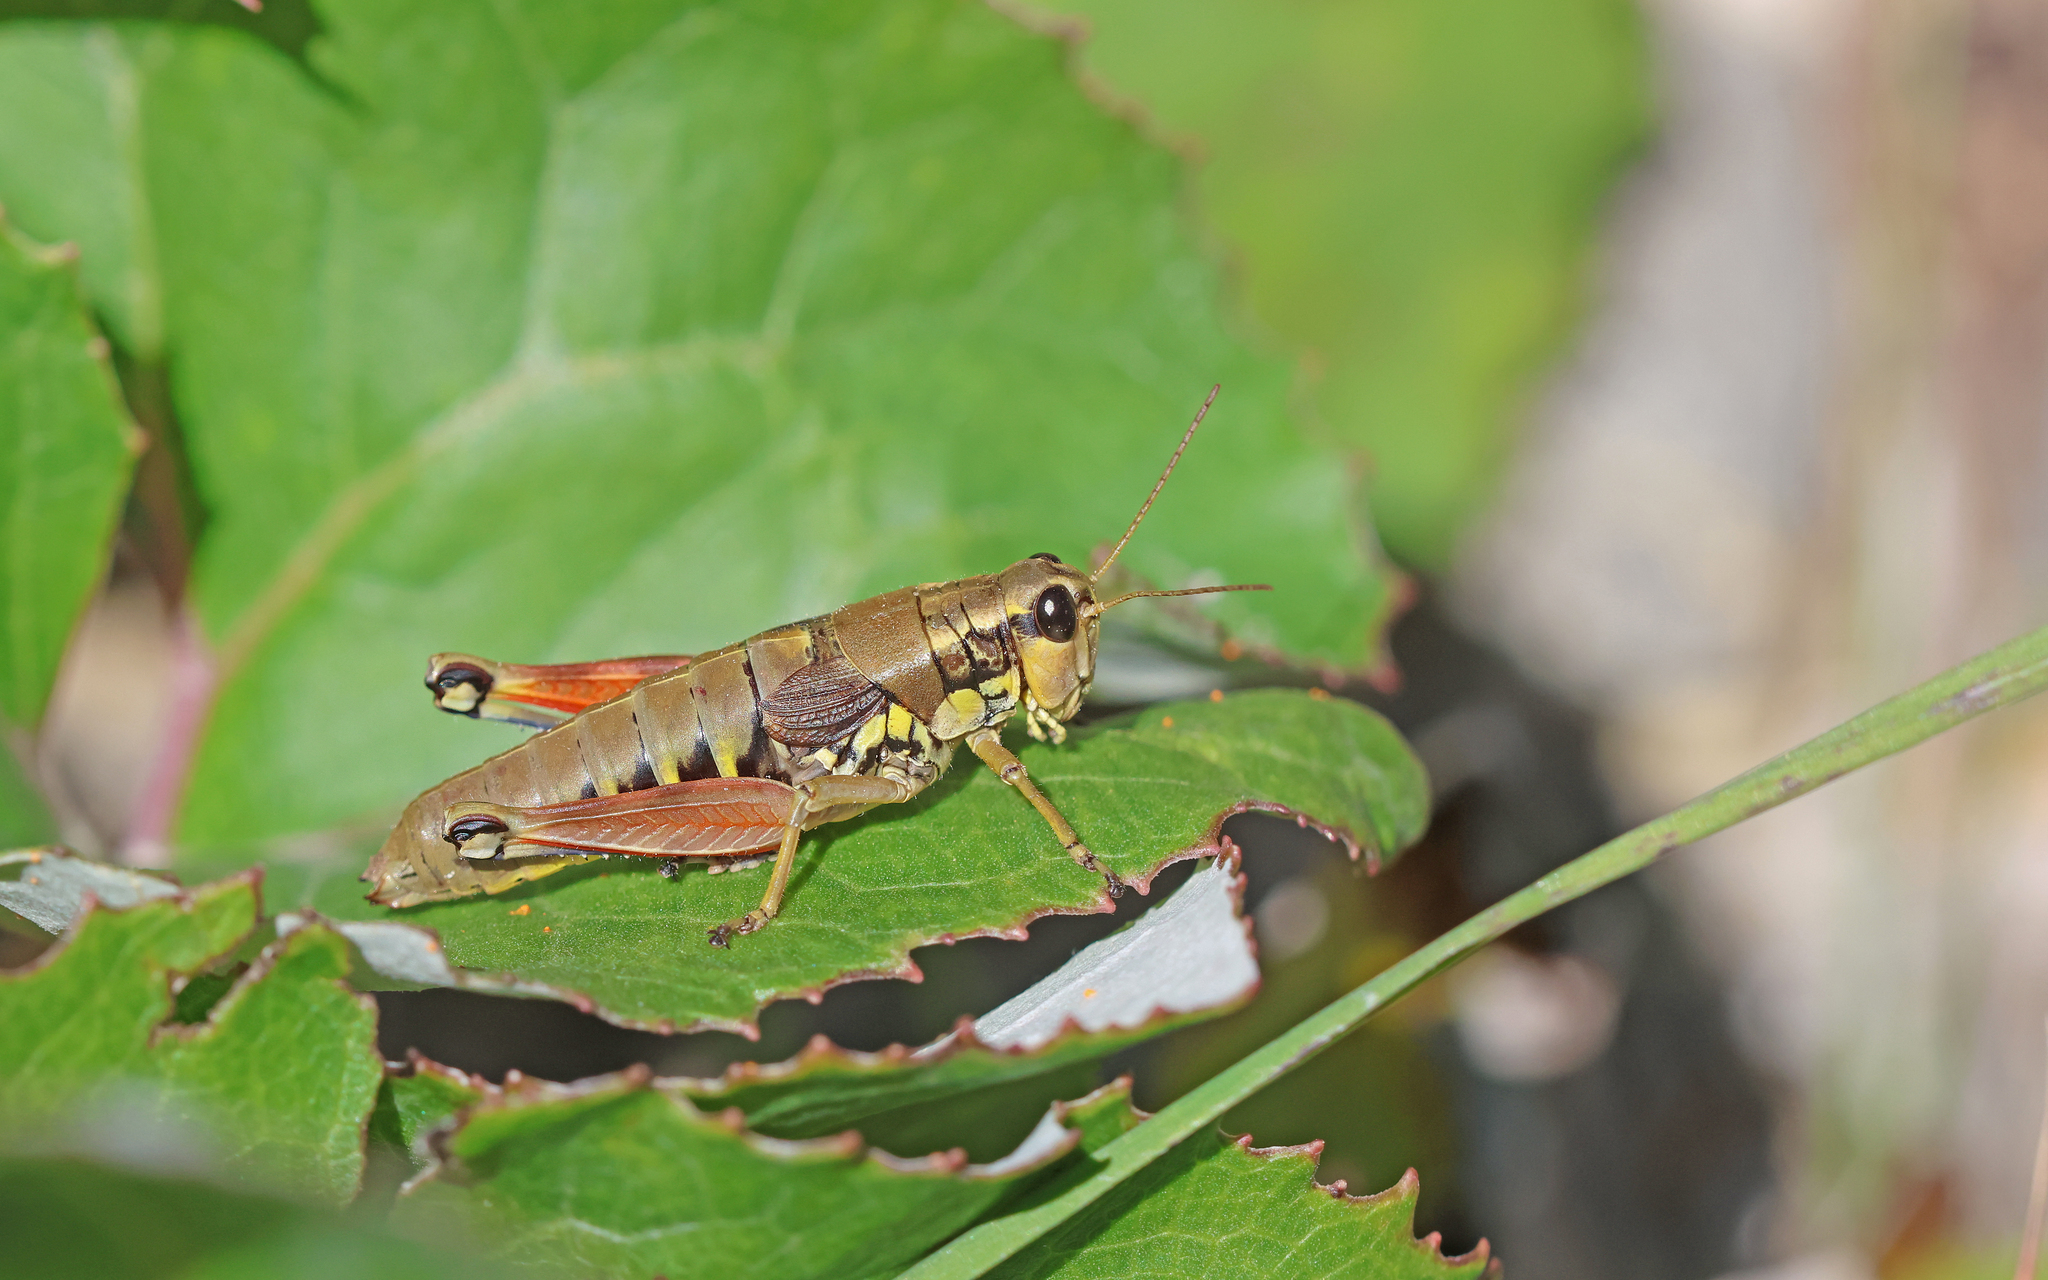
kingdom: Animalia
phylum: Arthropoda
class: Insecta
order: Orthoptera
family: Acrididae
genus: Podisma
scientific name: Podisma pedestris
